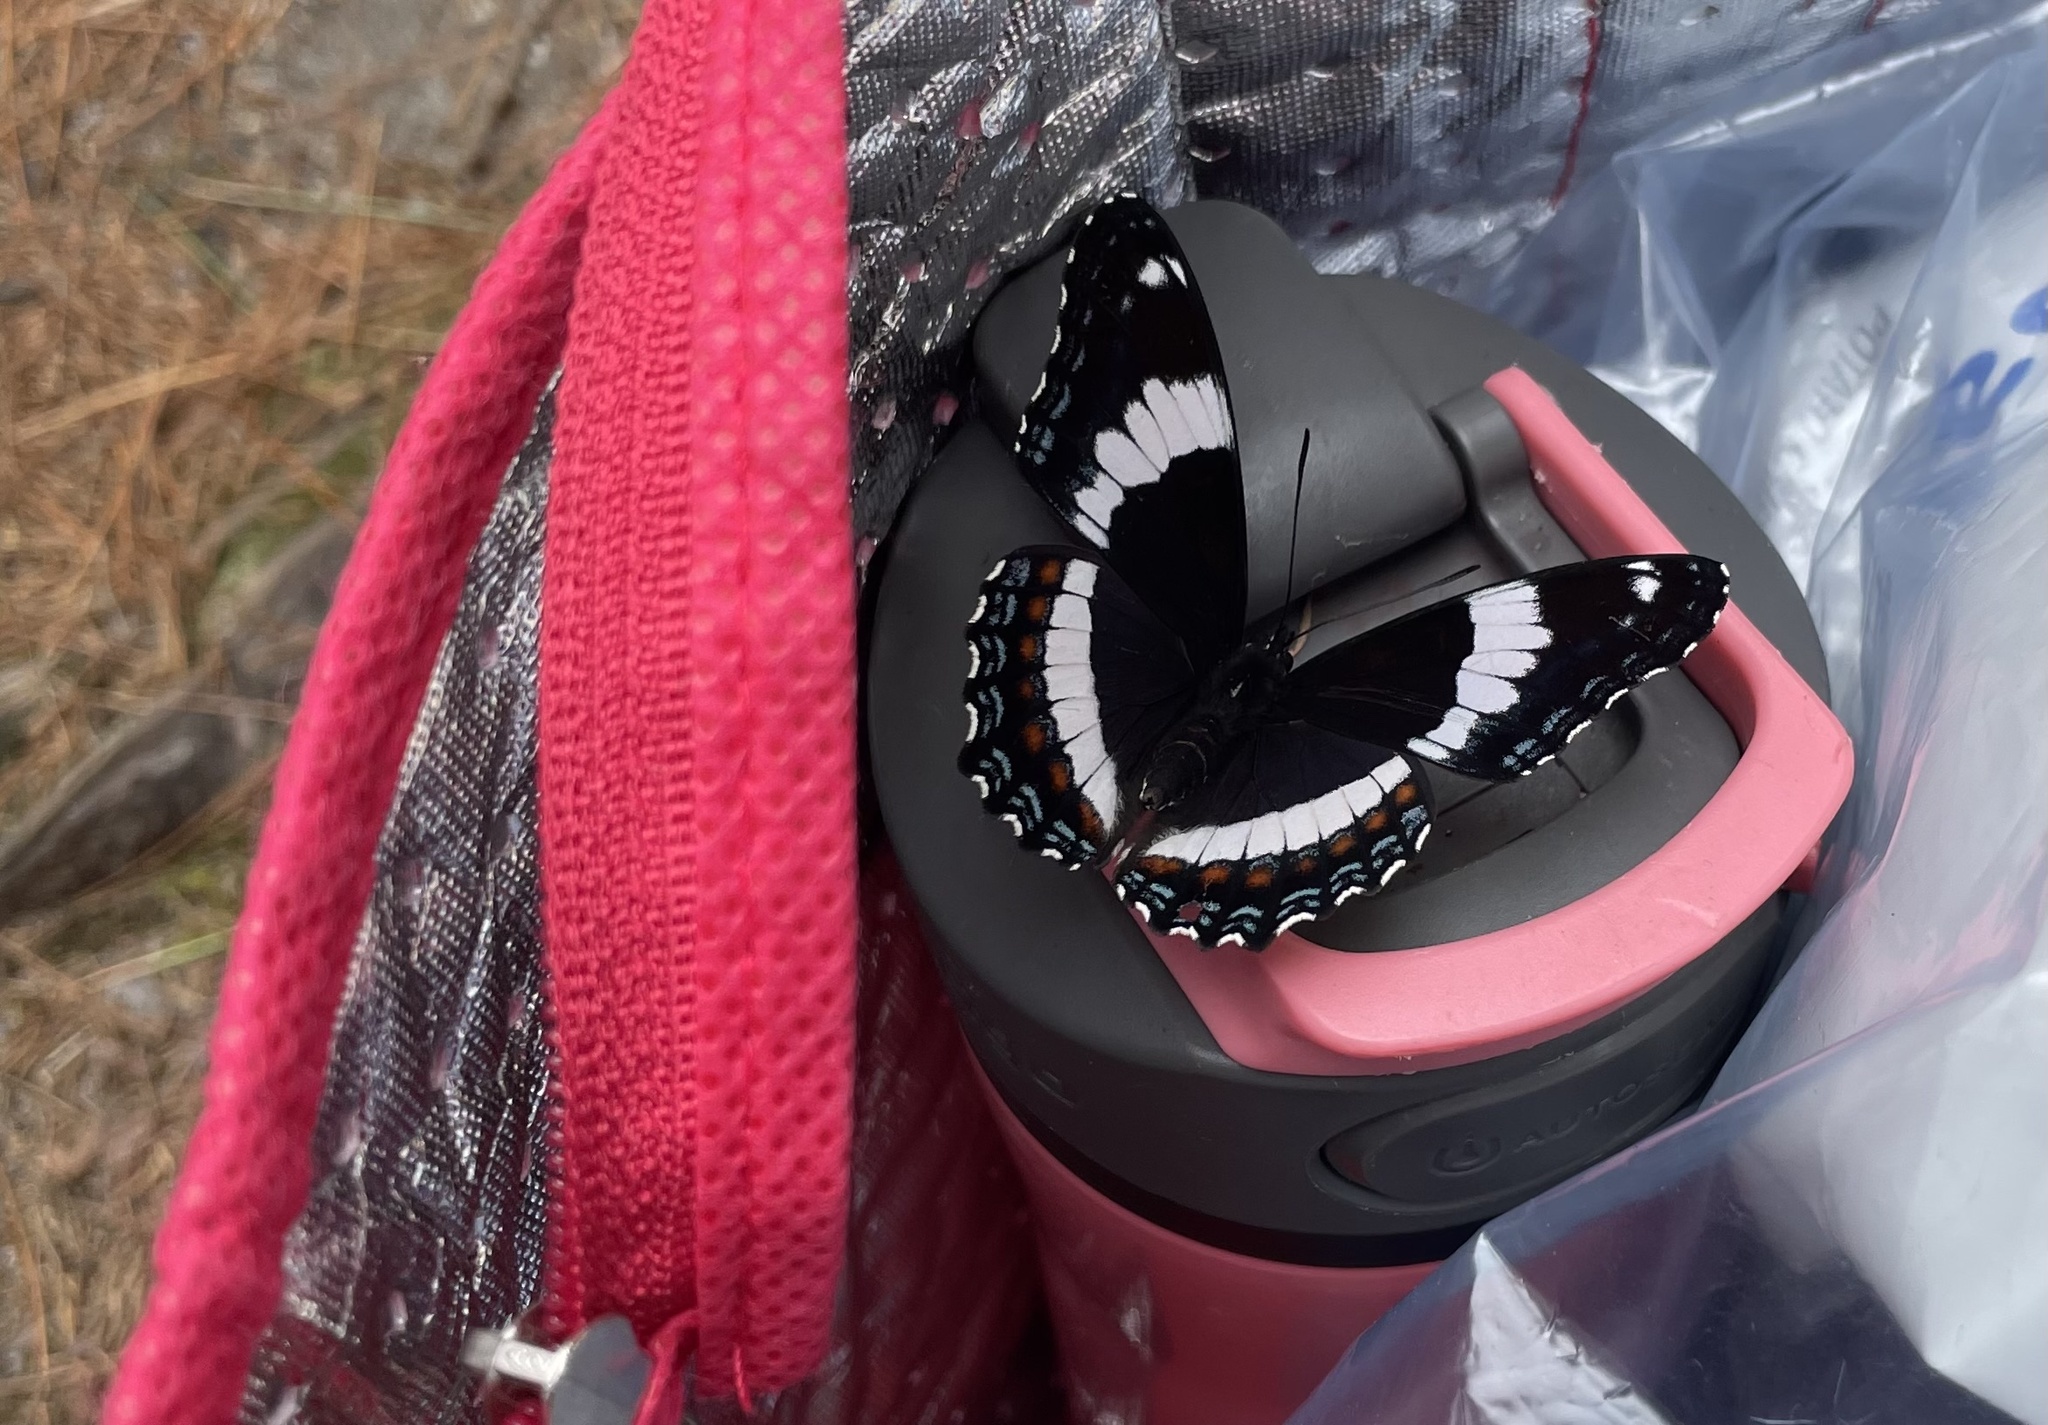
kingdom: Animalia
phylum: Arthropoda
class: Insecta
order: Lepidoptera
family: Nymphalidae
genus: Limenitis
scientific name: Limenitis arthemis
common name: Red-spotted admiral
